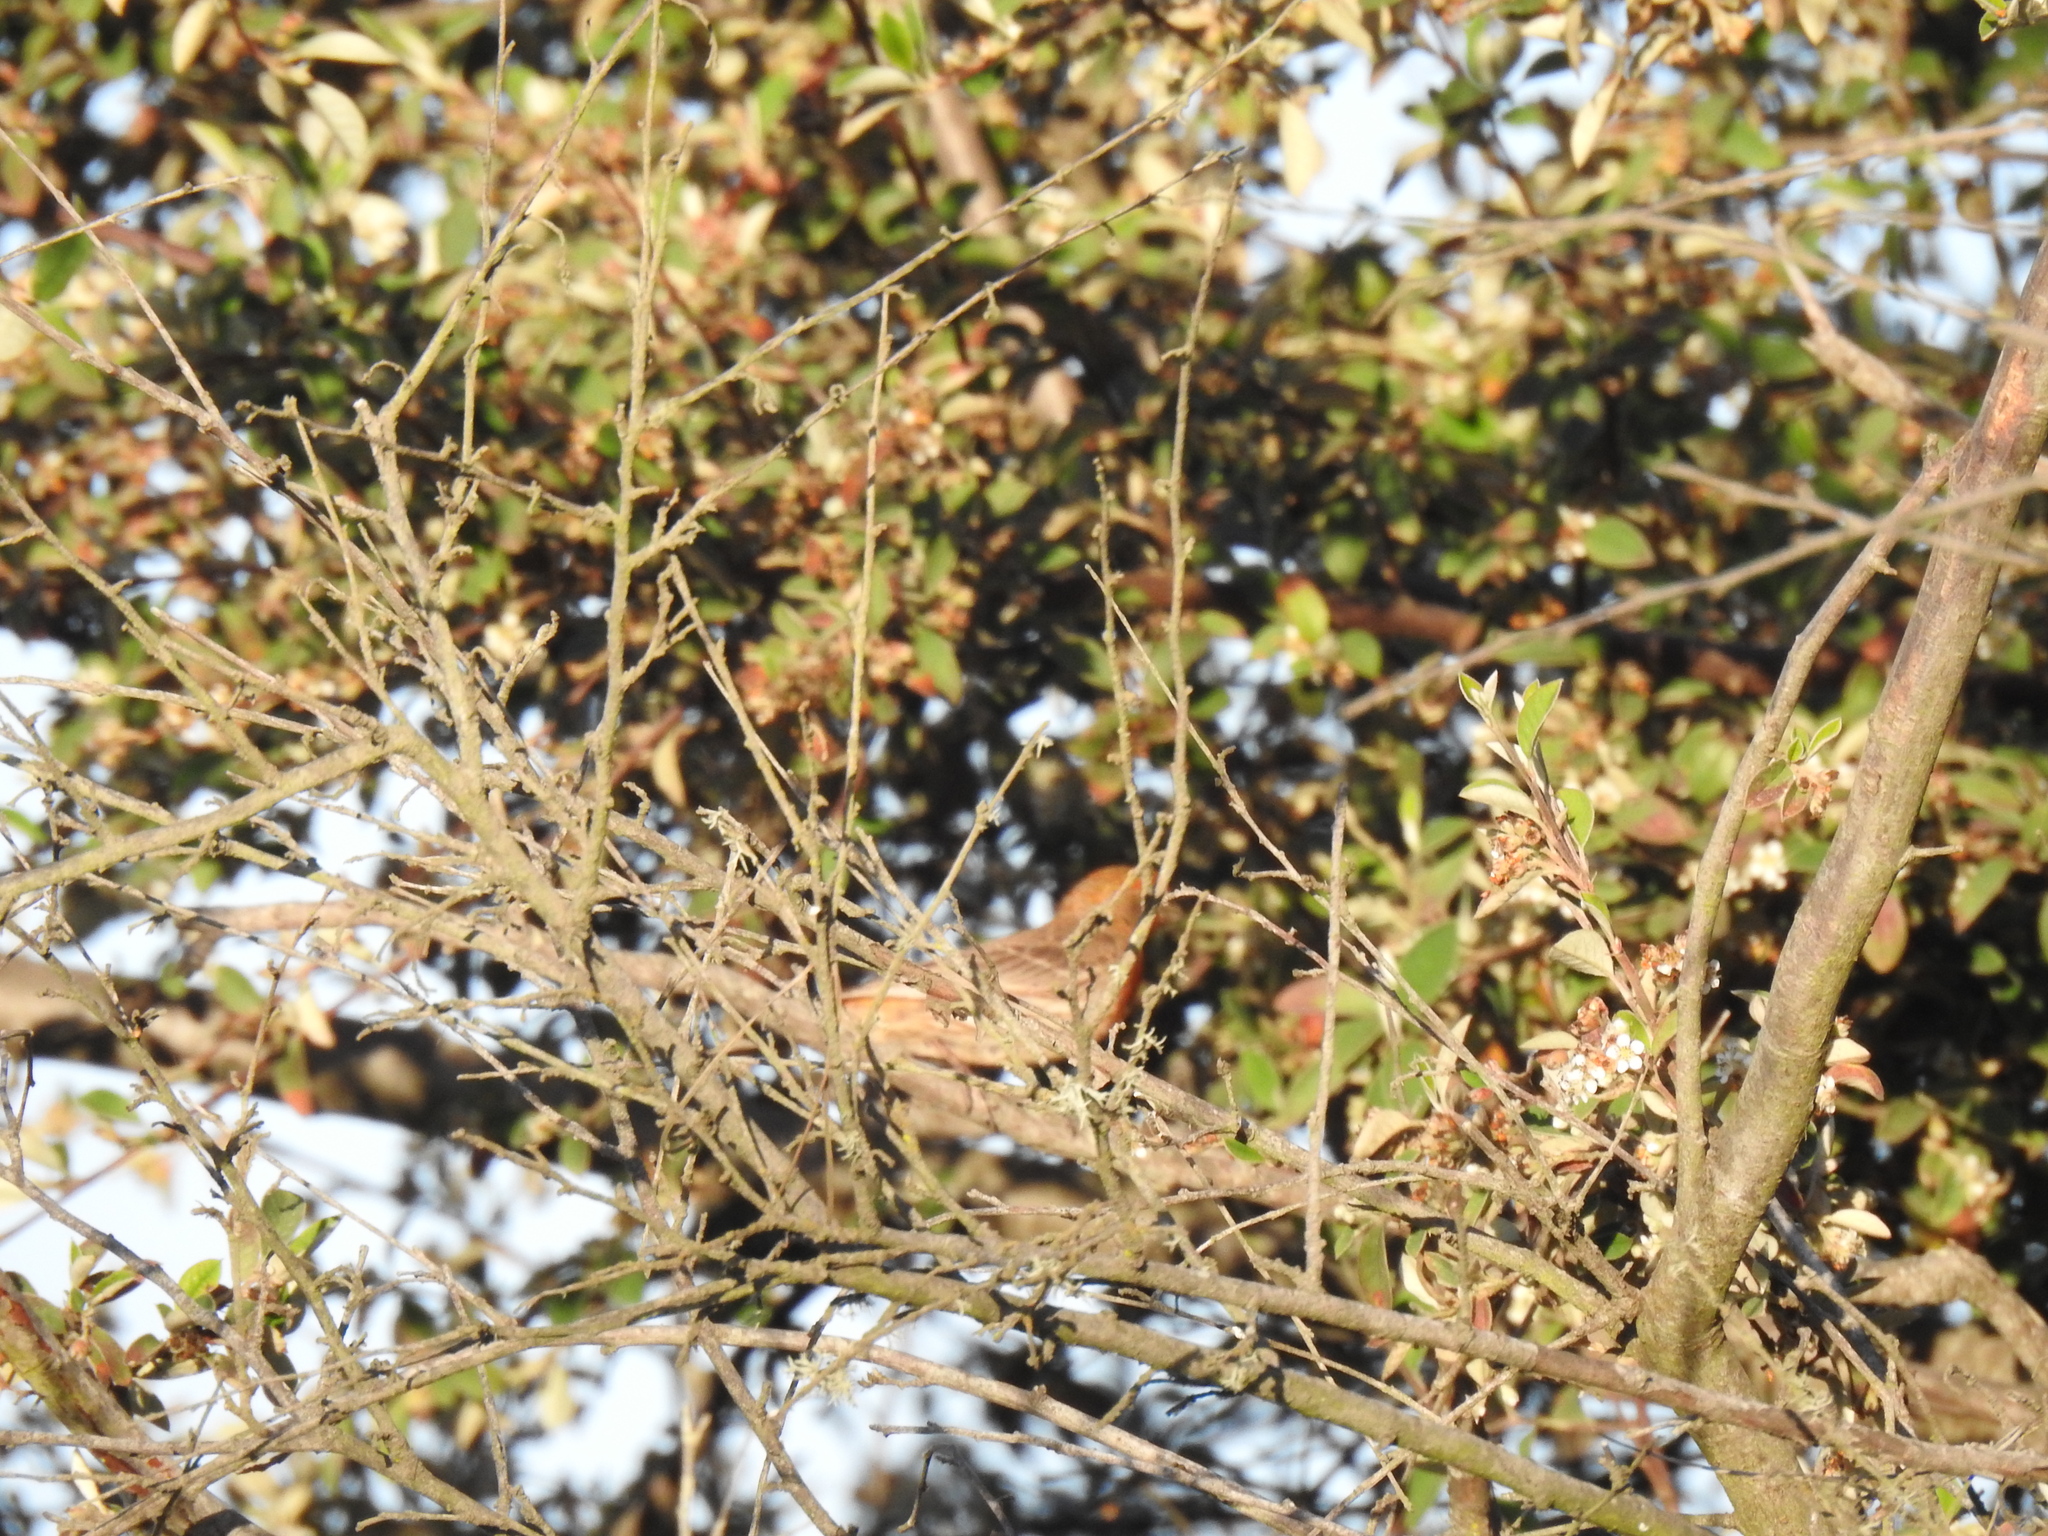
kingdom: Animalia
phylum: Chordata
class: Aves
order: Passeriformes
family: Fringillidae
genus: Haemorhous
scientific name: Haemorhous mexicanus
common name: House finch
